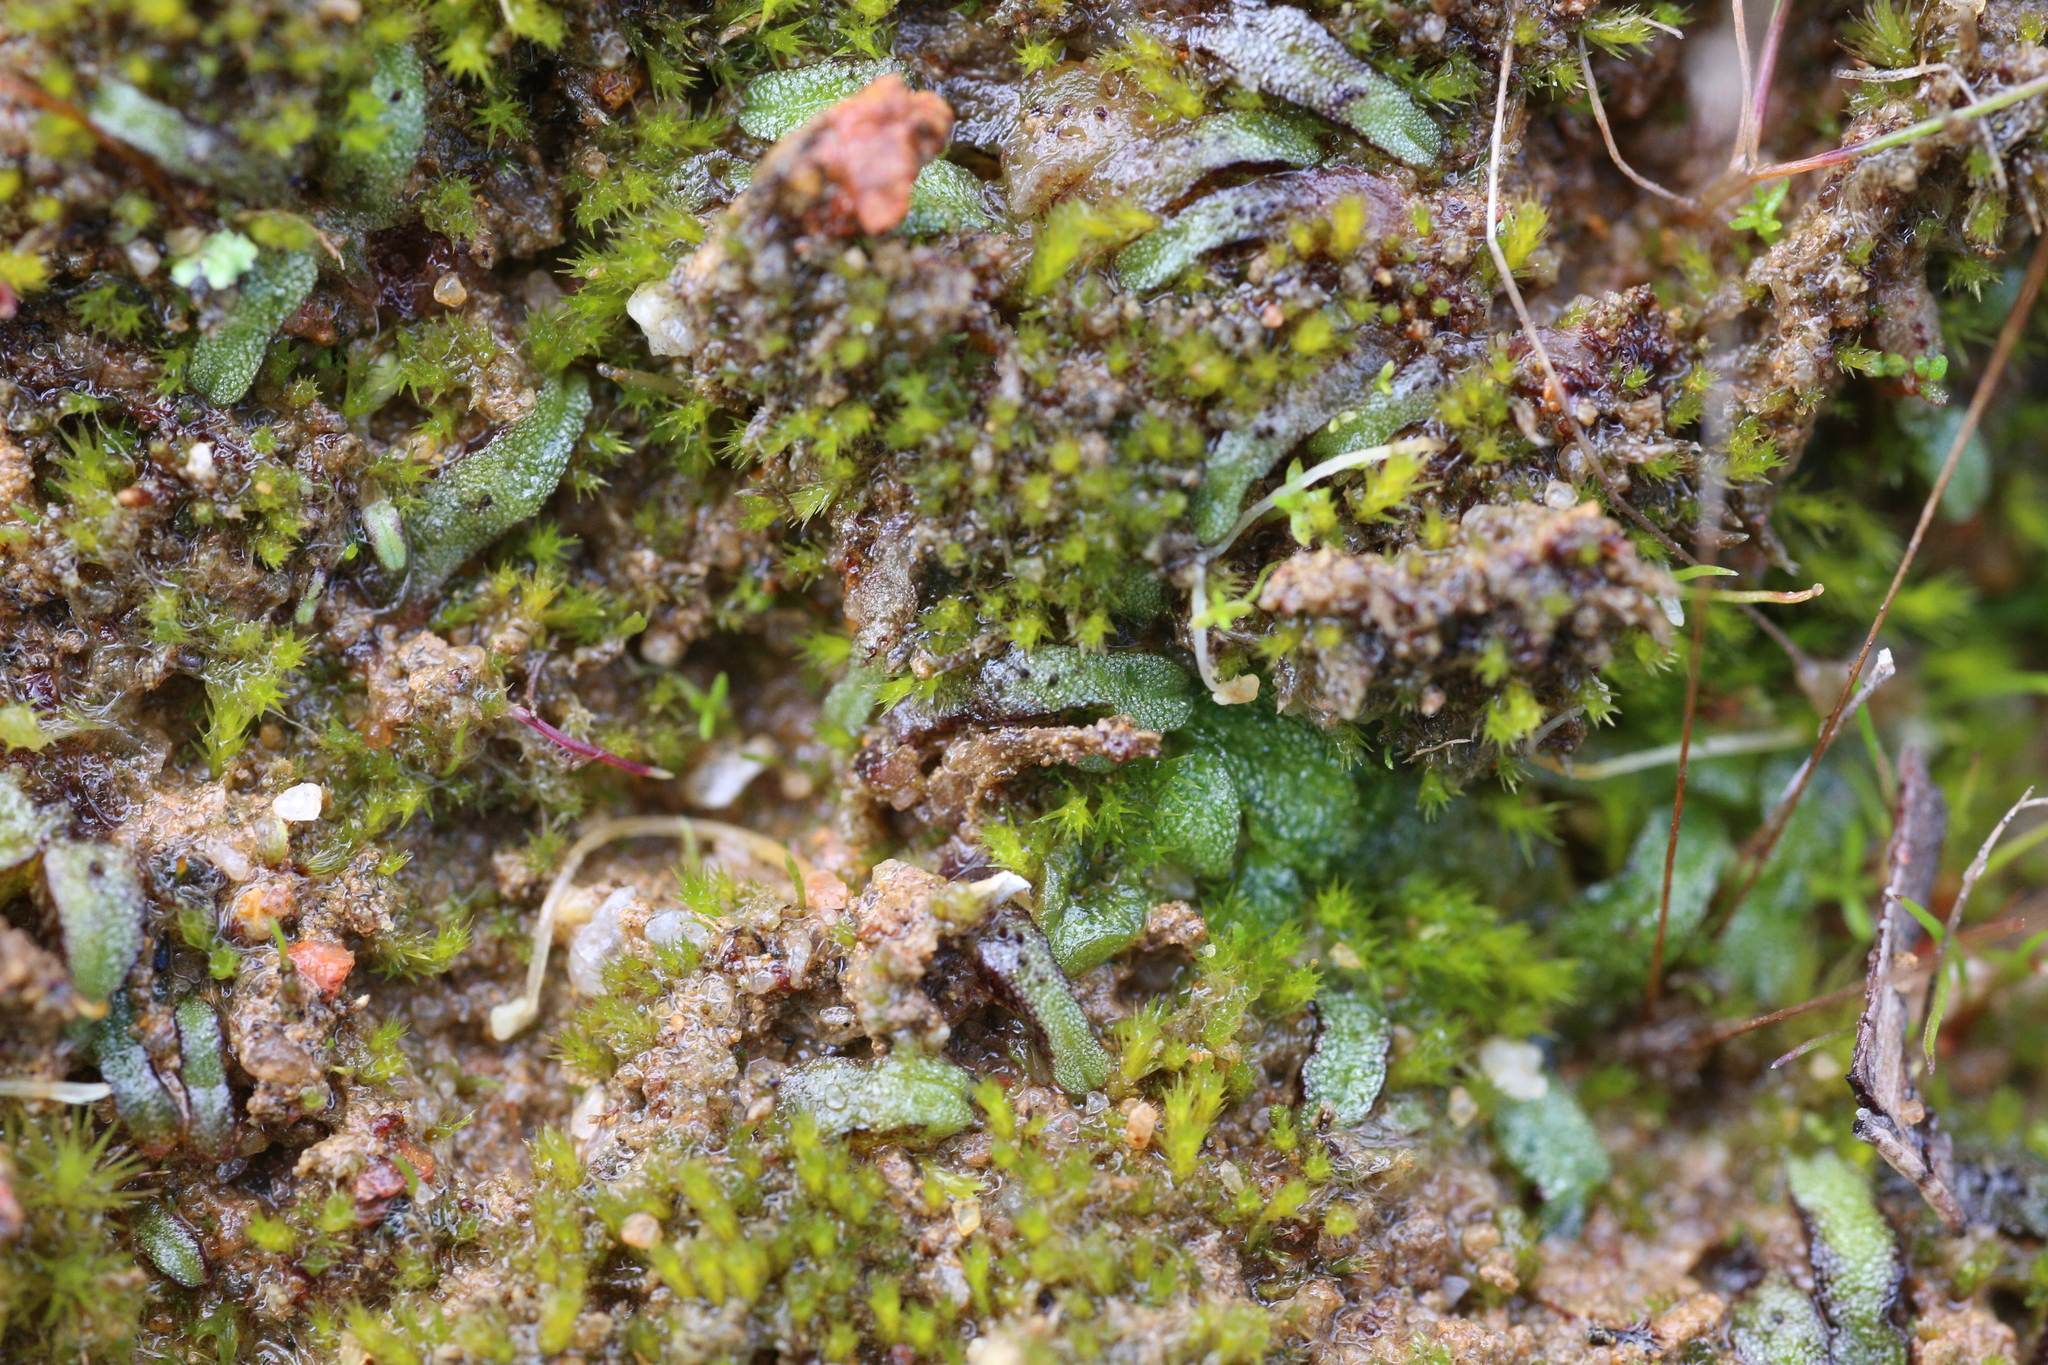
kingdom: Plantae
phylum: Marchantiophyta
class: Marchantiopsida
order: Marchantiales
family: Ricciaceae
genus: Riccia
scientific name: Riccia sorocarpa
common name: Common crystalwort
